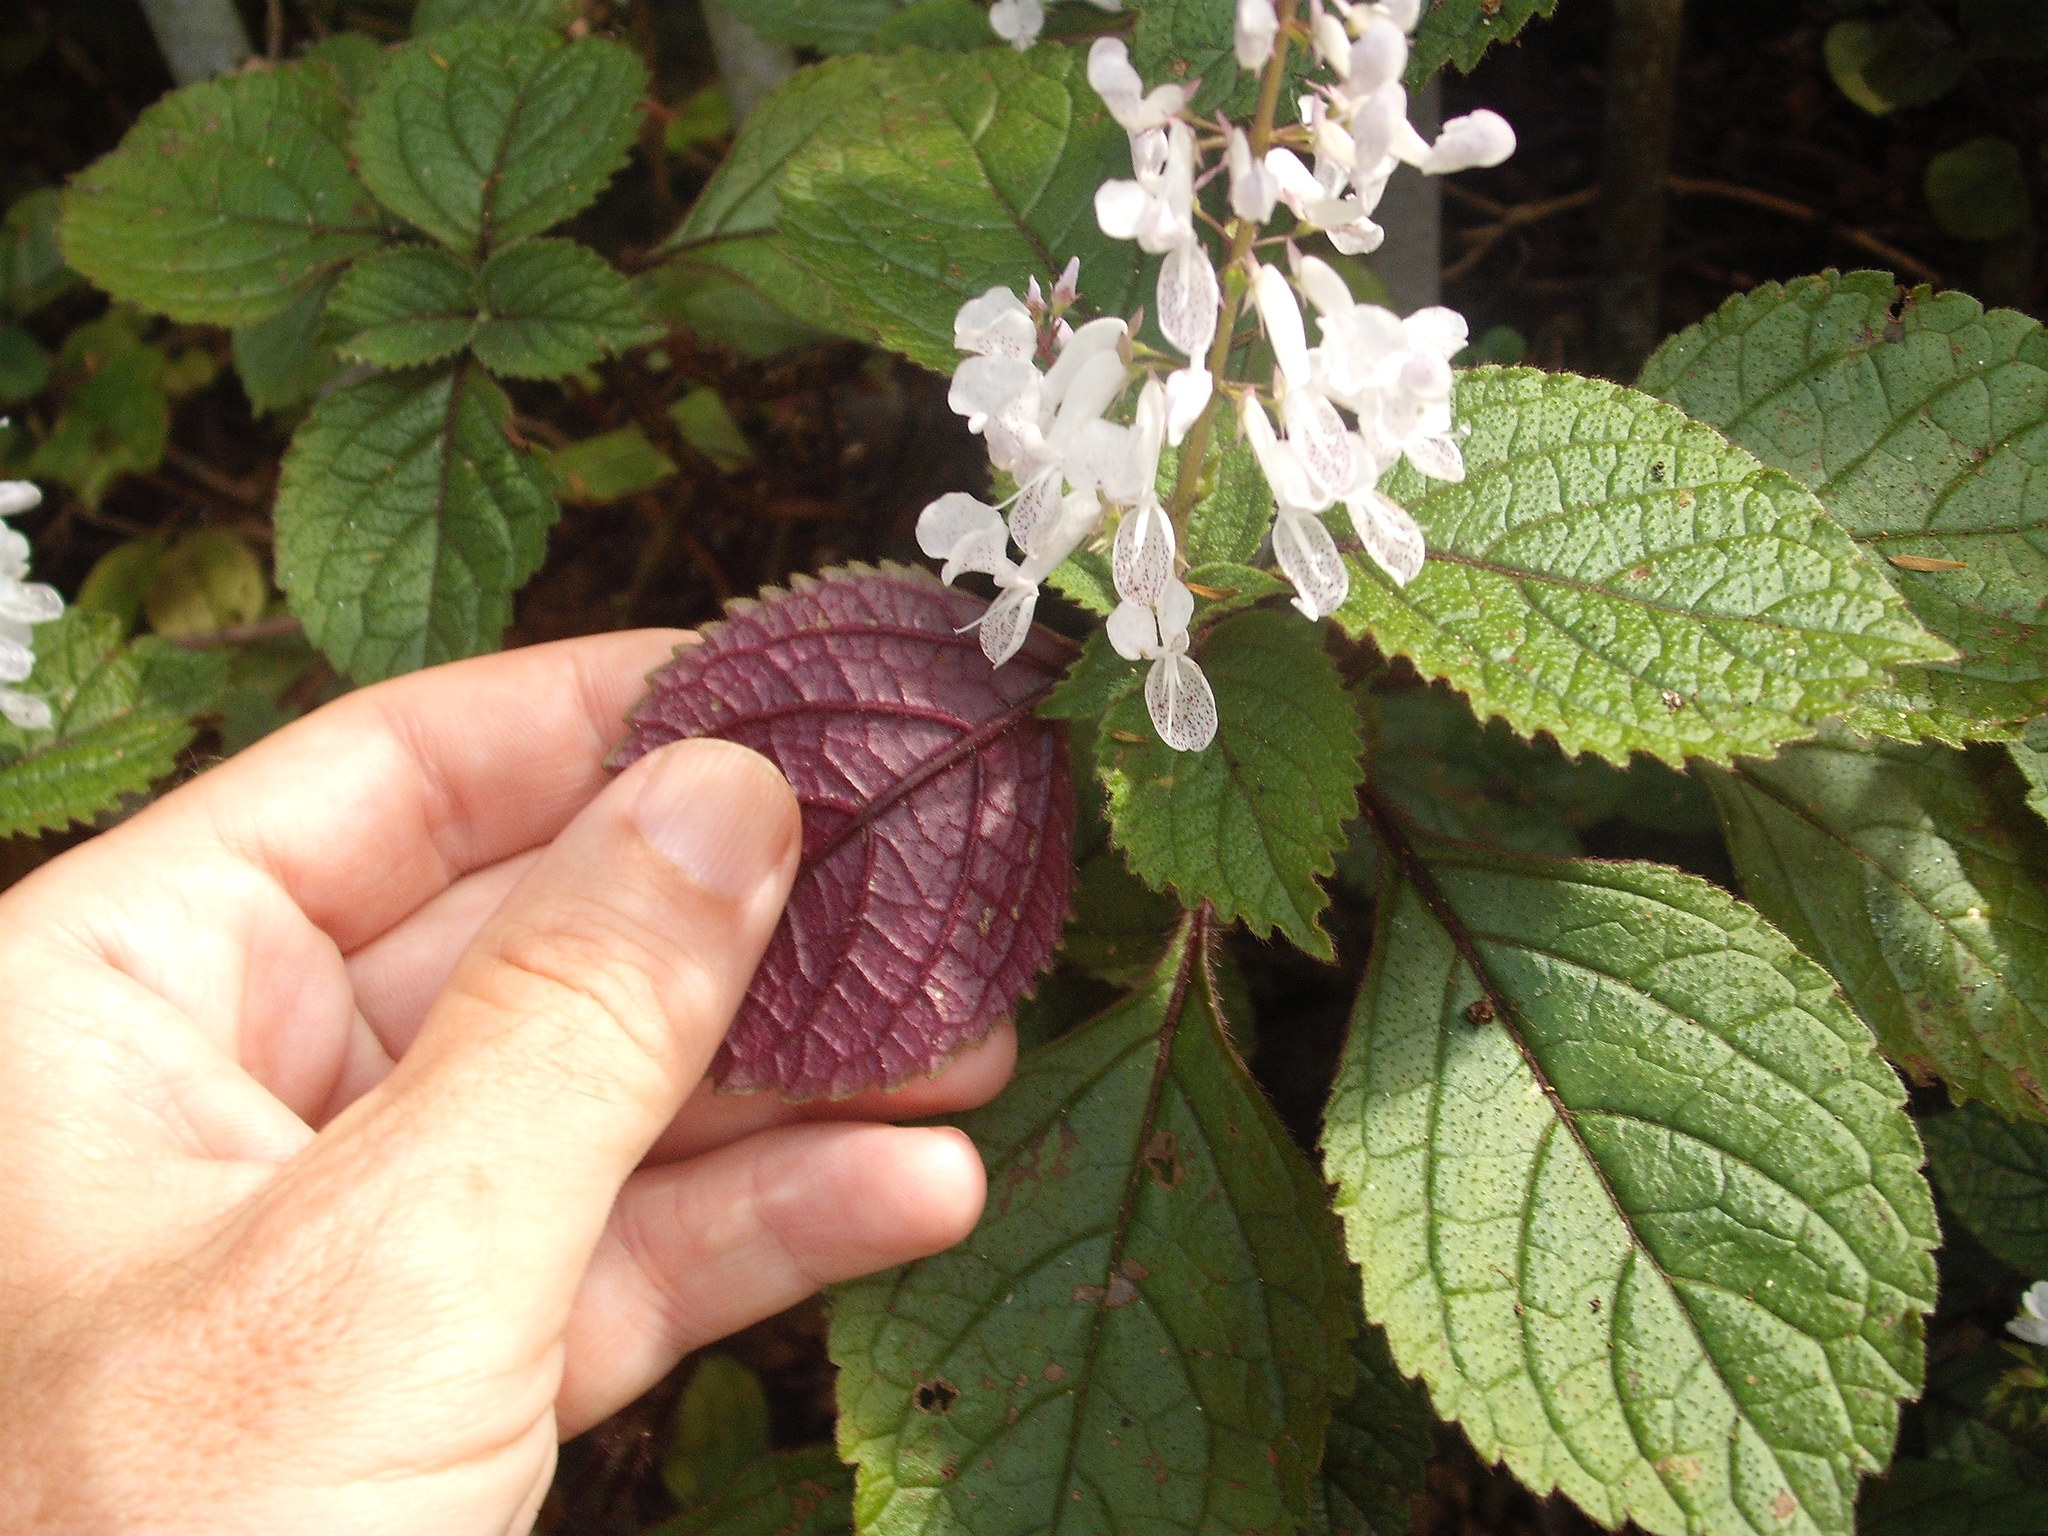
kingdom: Plantae
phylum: Tracheophyta
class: Magnoliopsida
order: Lamiales
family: Lamiaceae
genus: Plectranthus
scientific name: Plectranthus ciliatus
